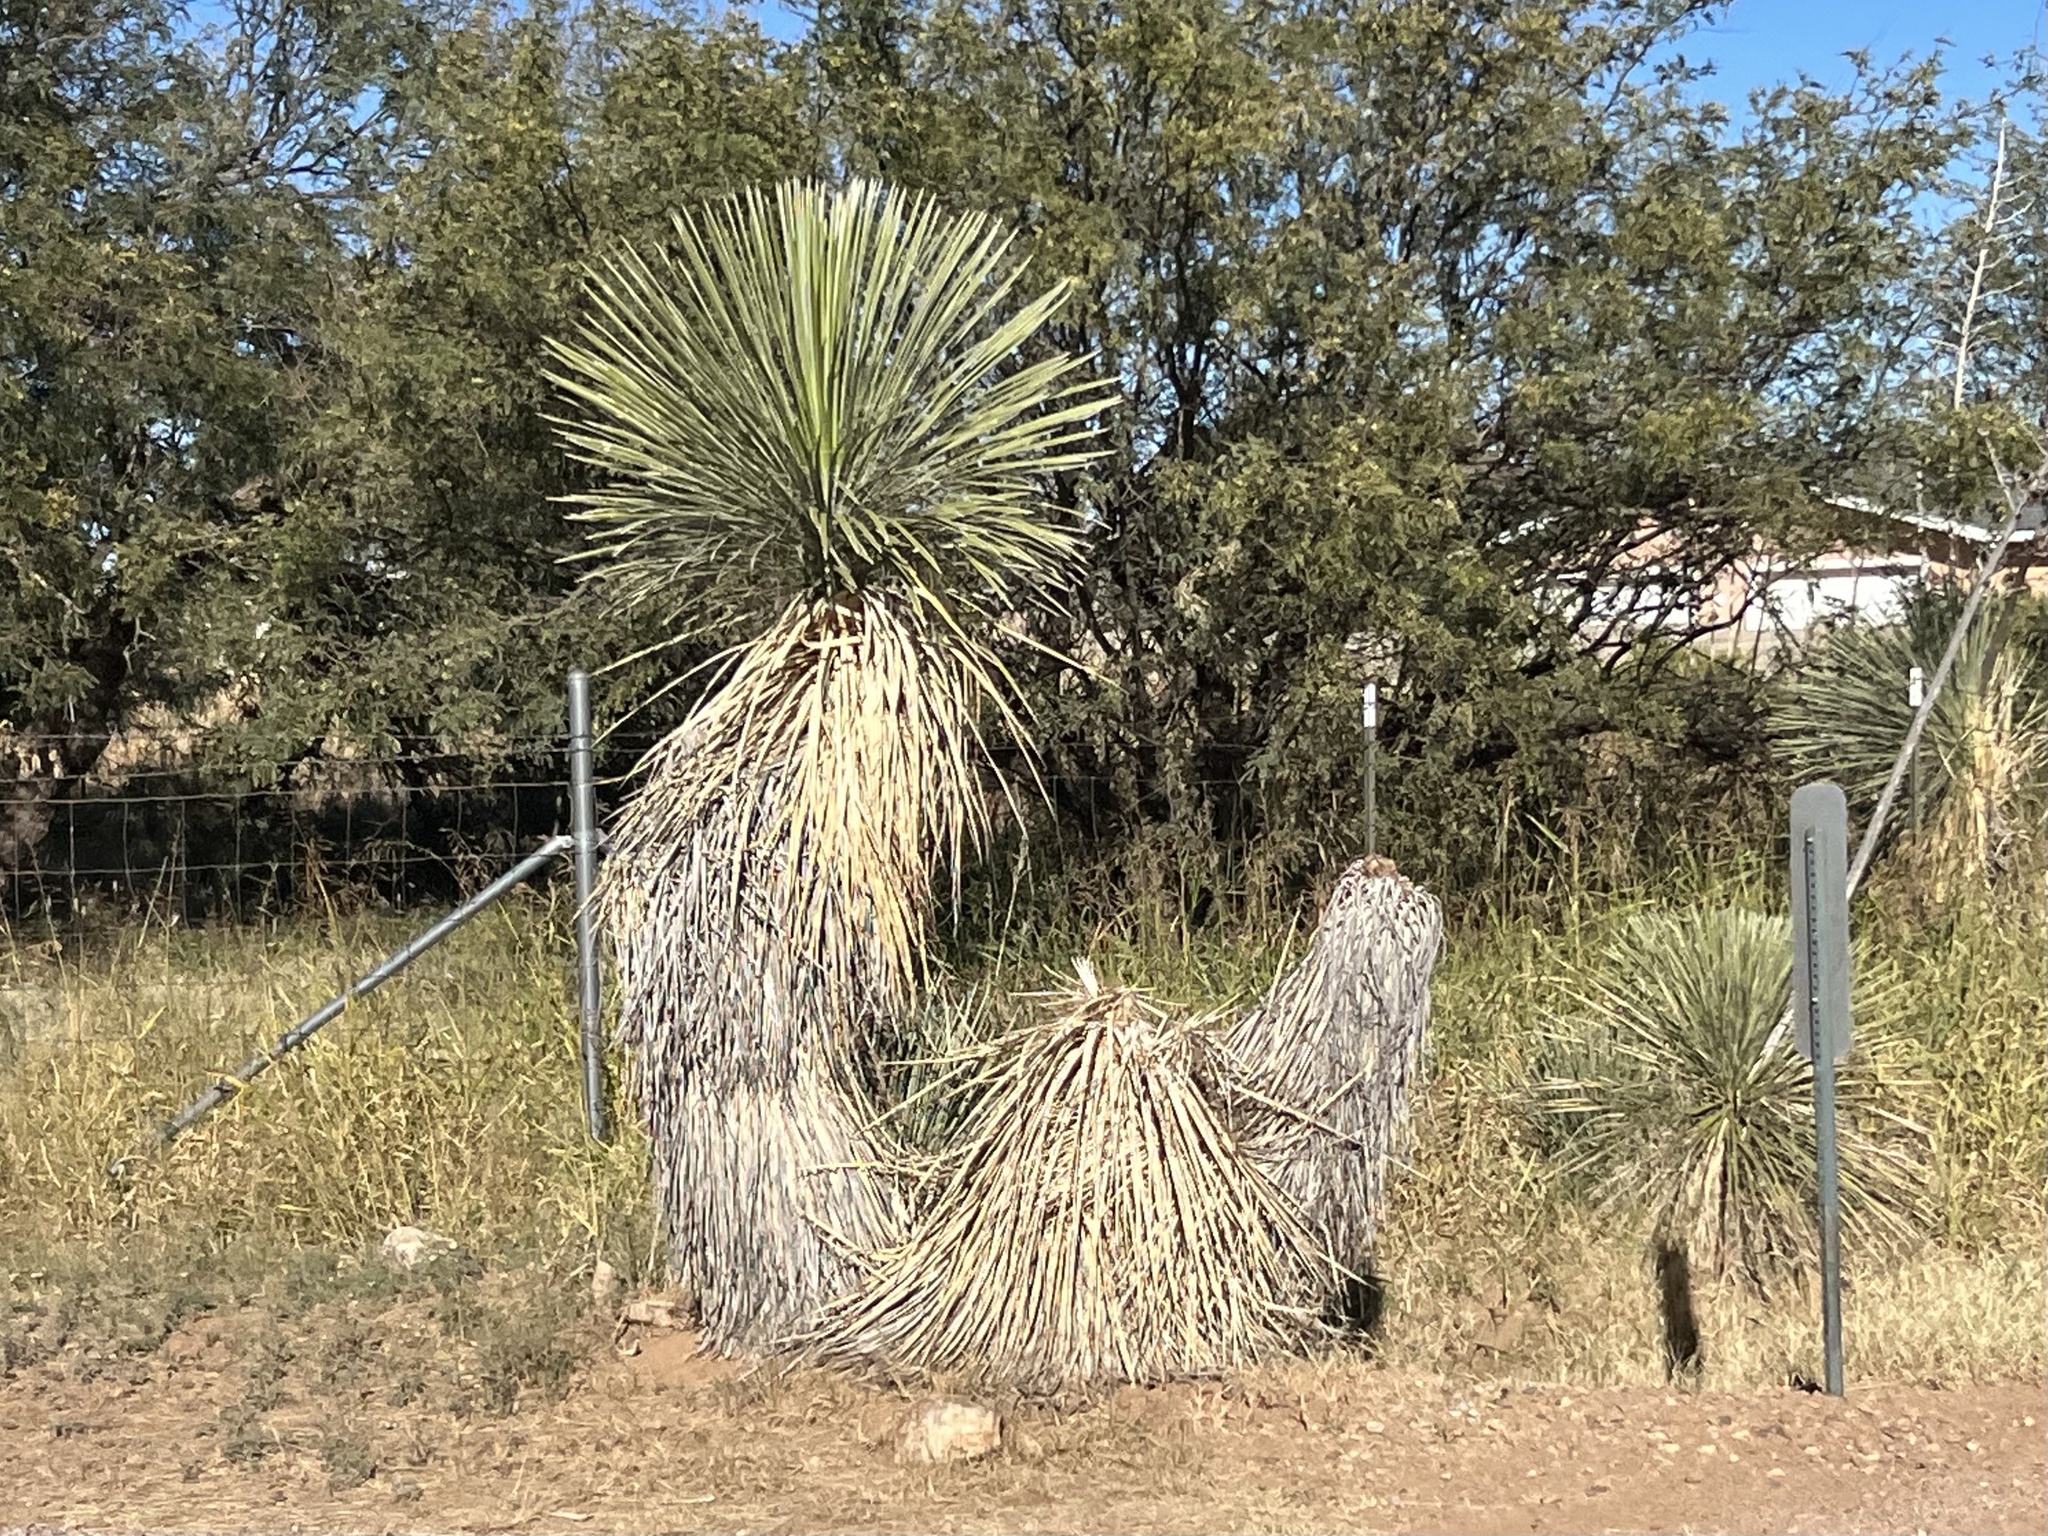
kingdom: Plantae
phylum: Tracheophyta
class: Liliopsida
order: Asparagales
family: Asparagaceae
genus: Yucca
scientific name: Yucca elata
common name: Palmella
